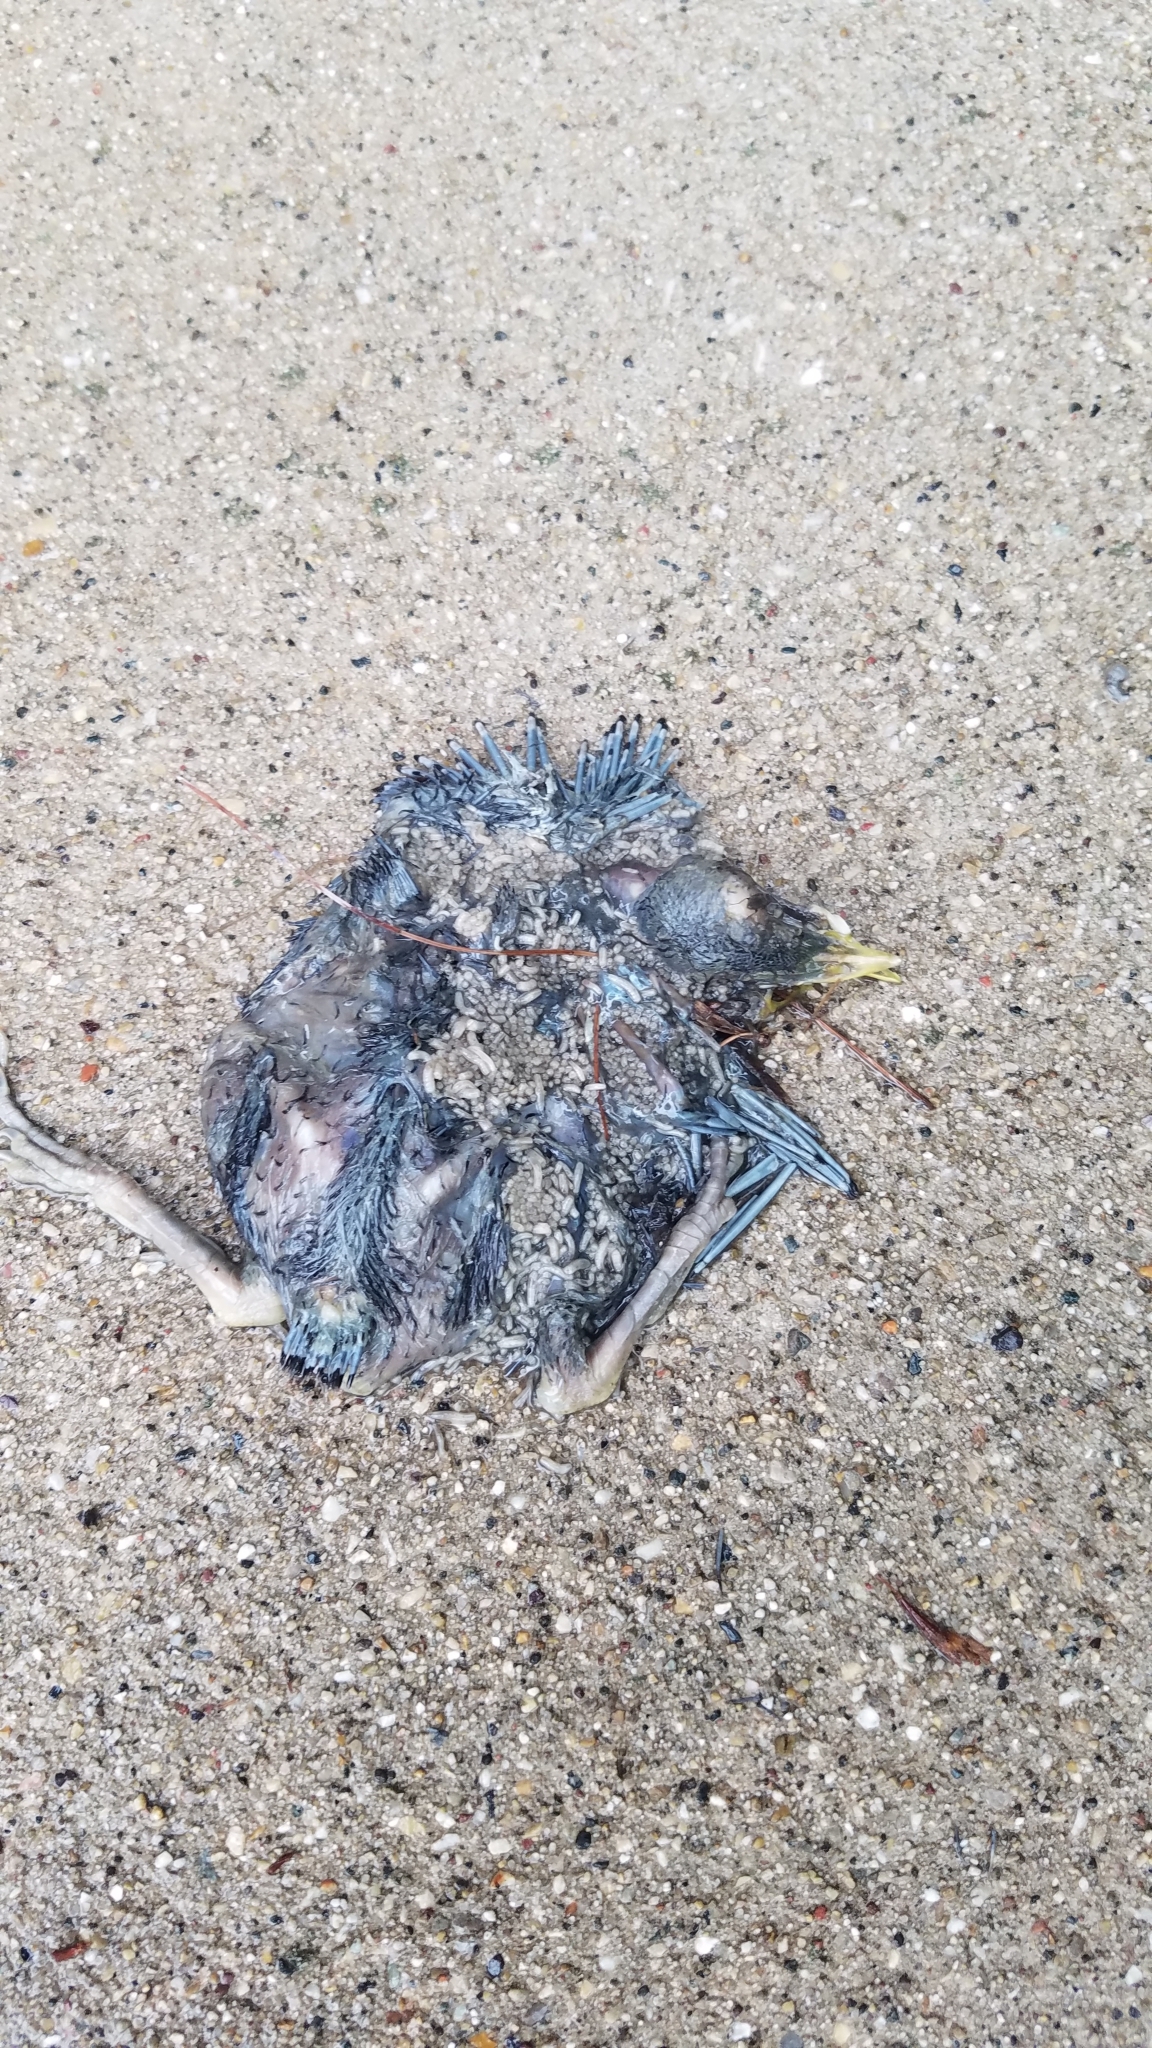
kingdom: Animalia
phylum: Chordata
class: Aves
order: Passeriformes
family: Turdidae
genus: Turdus
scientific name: Turdus migratorius
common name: American robin
